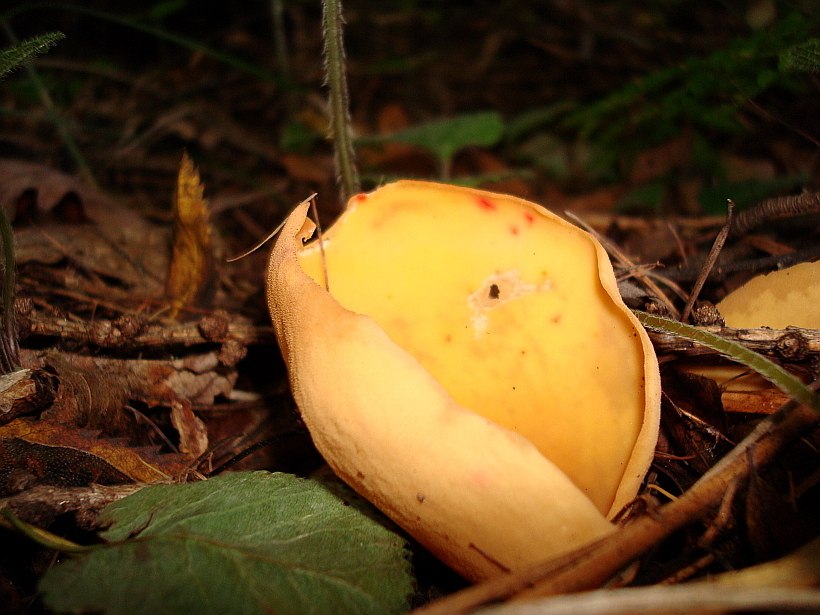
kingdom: Fungi
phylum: Ascomycota
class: Pezizomycetes
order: Pezizales
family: Otideaceae
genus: Otidea
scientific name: Otidea onotica
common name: Hare's ear
